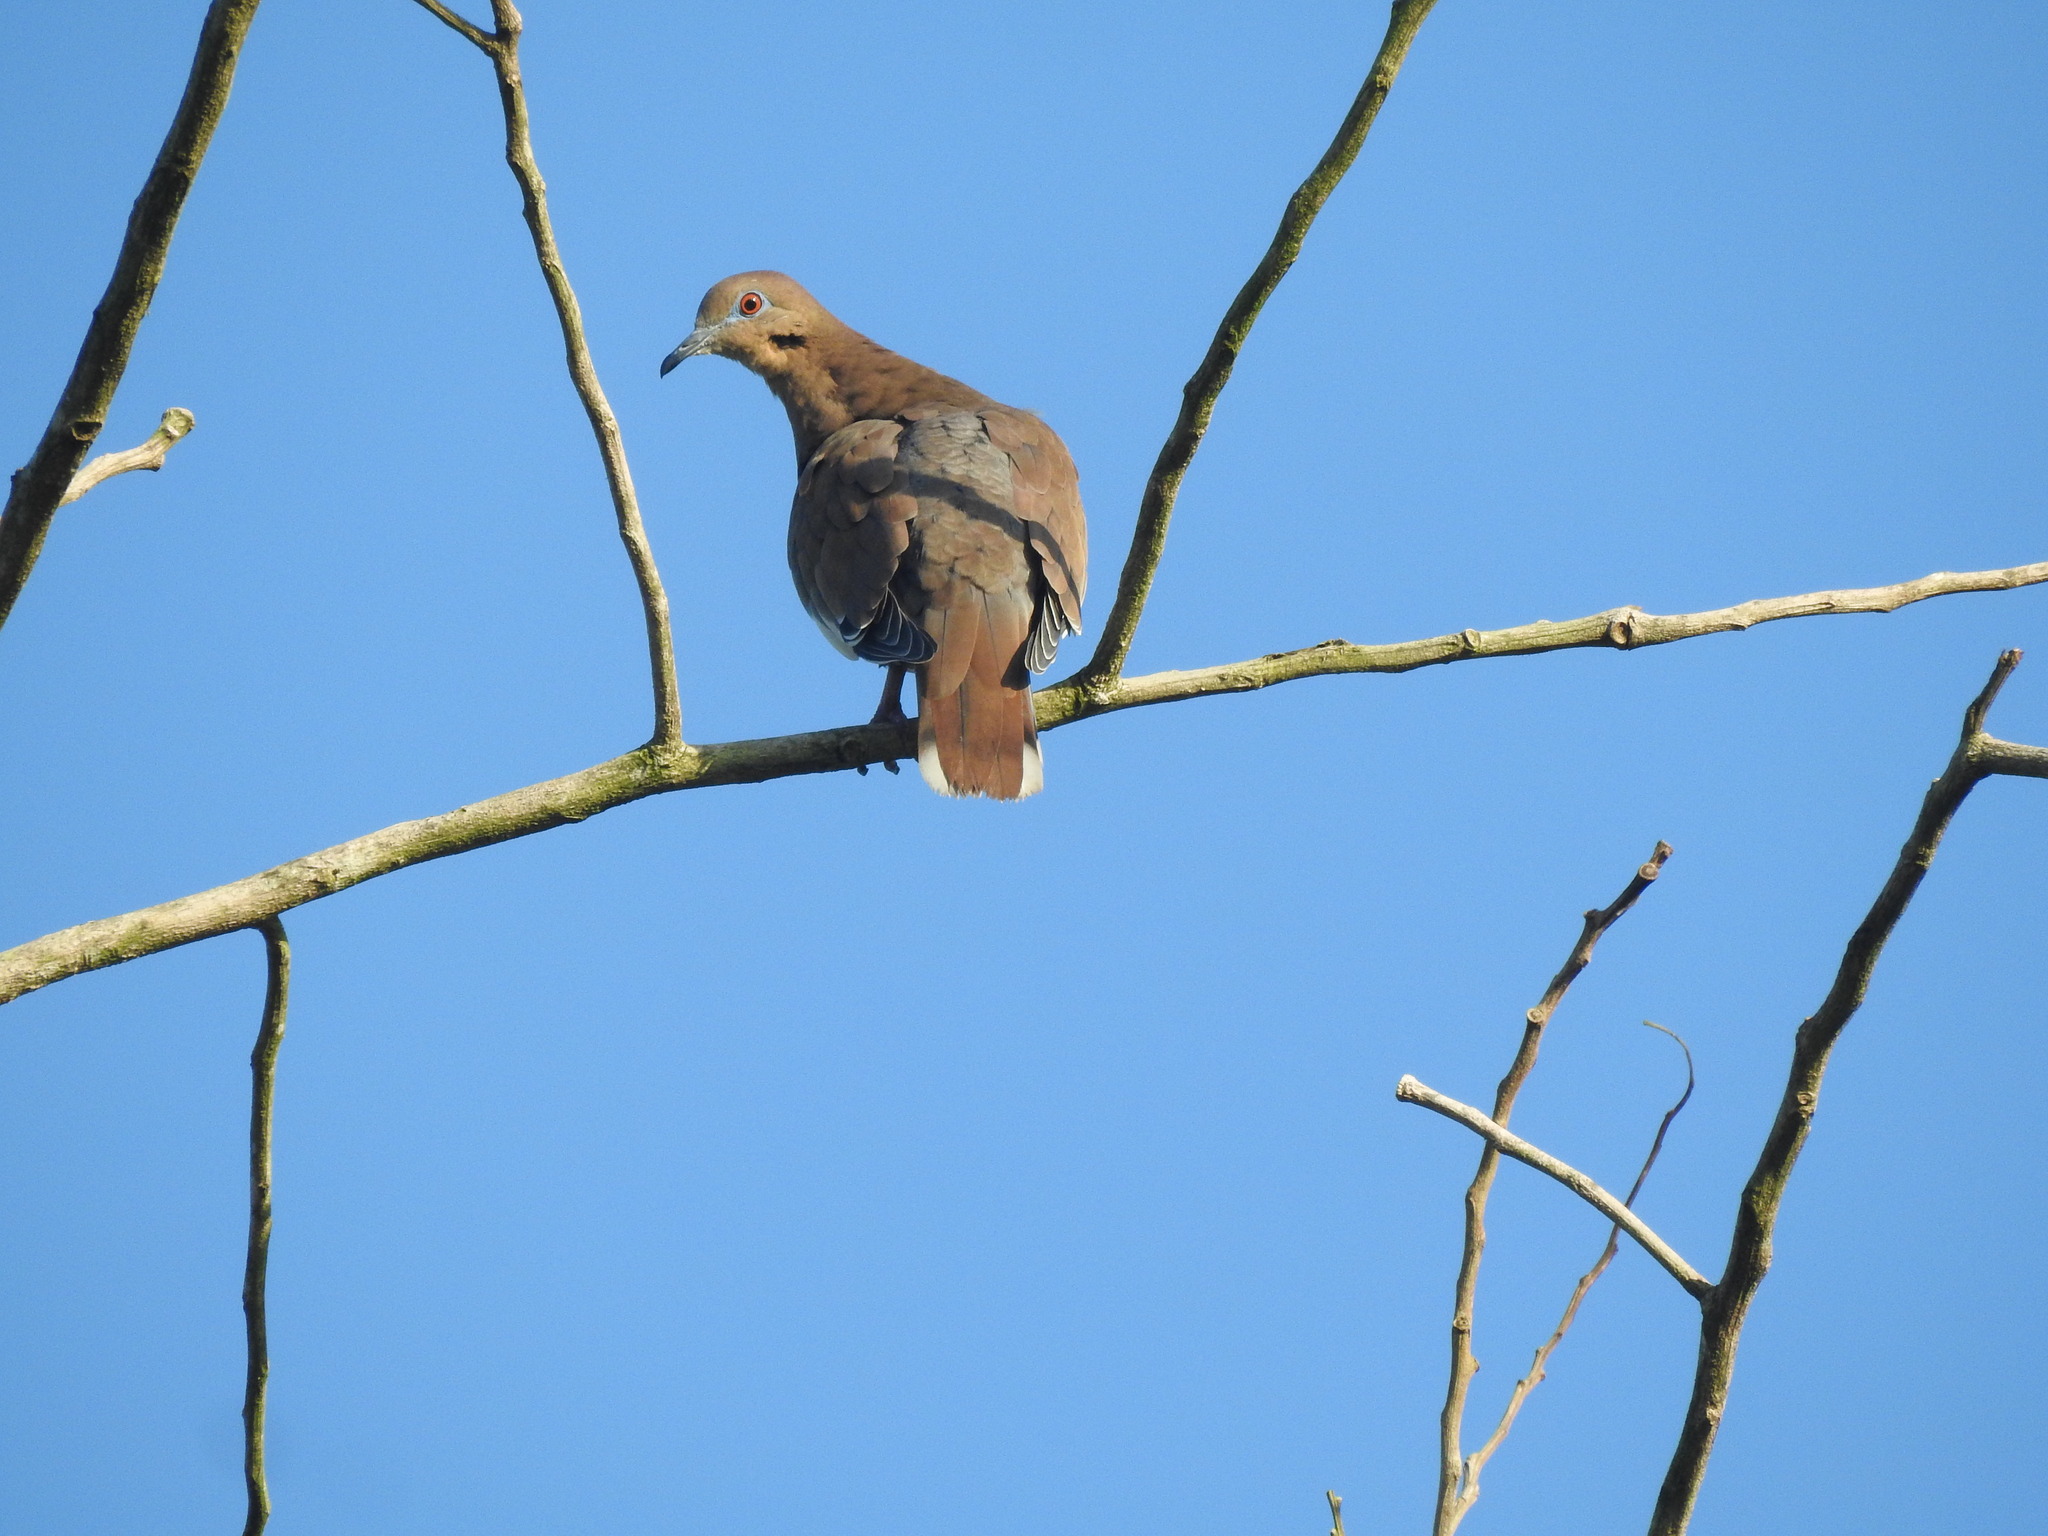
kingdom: Animalia
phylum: Chordata
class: Aves
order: Columbiformes
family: Columbidae
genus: Zenaida
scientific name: Zenaida asiatica
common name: White-winged dove
